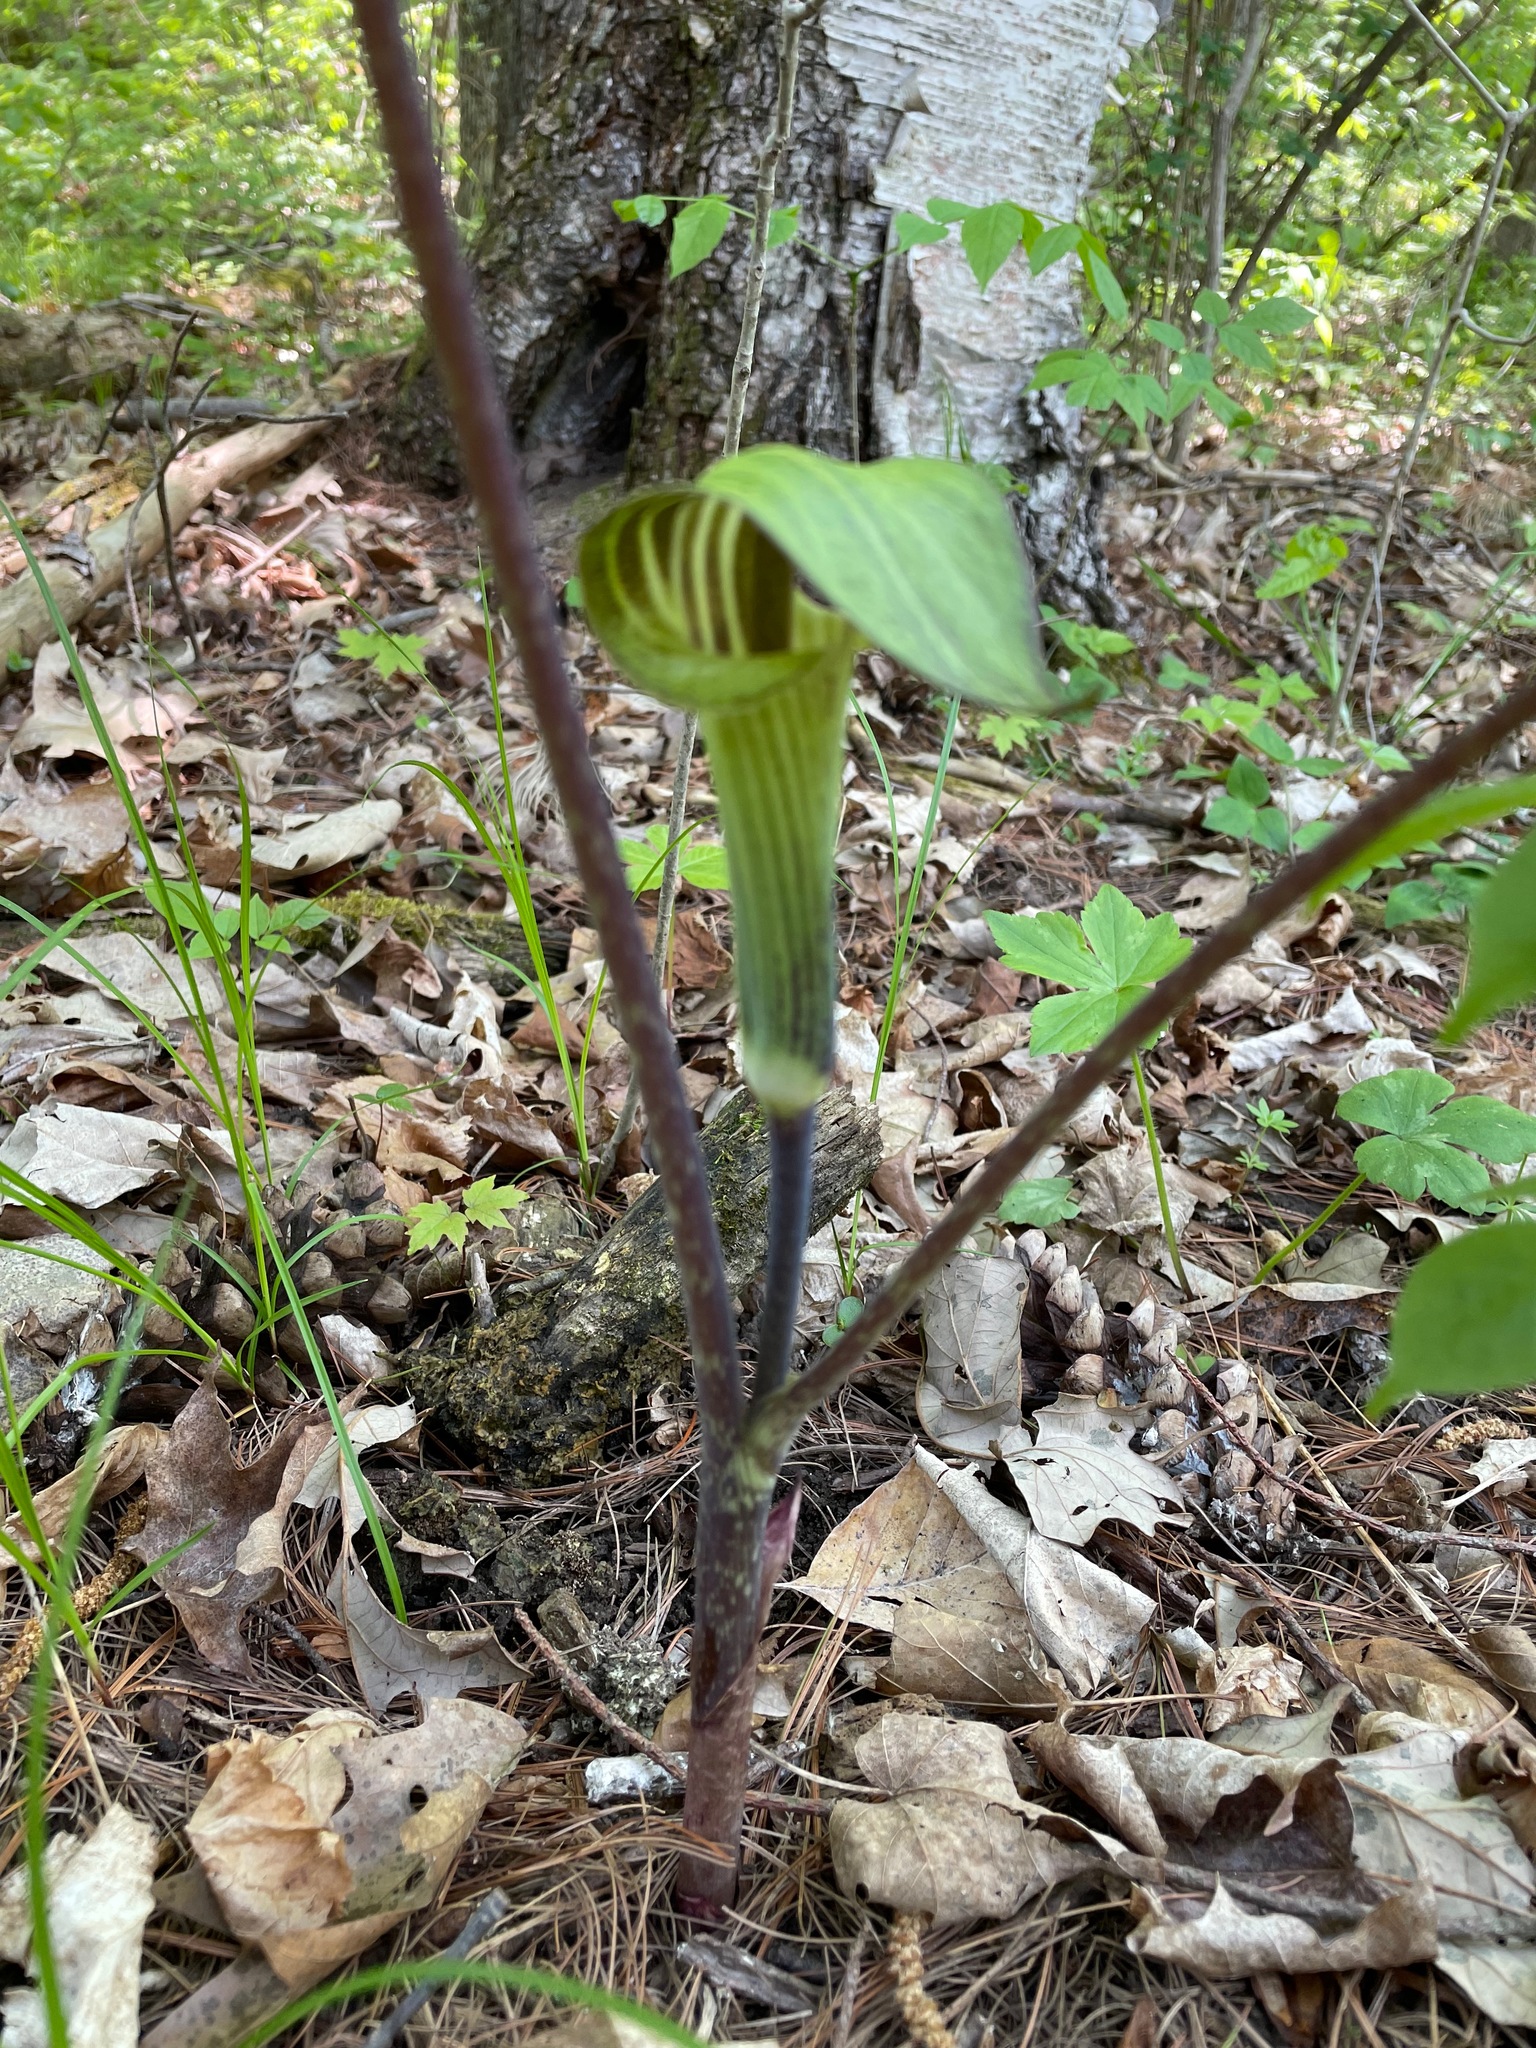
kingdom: Plantae
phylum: Tracheophyta
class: Liliopsida
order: Alismatales
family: Araceae
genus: Arisaema
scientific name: Arisaema triphyllum
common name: Jack-in-the-pulpit
